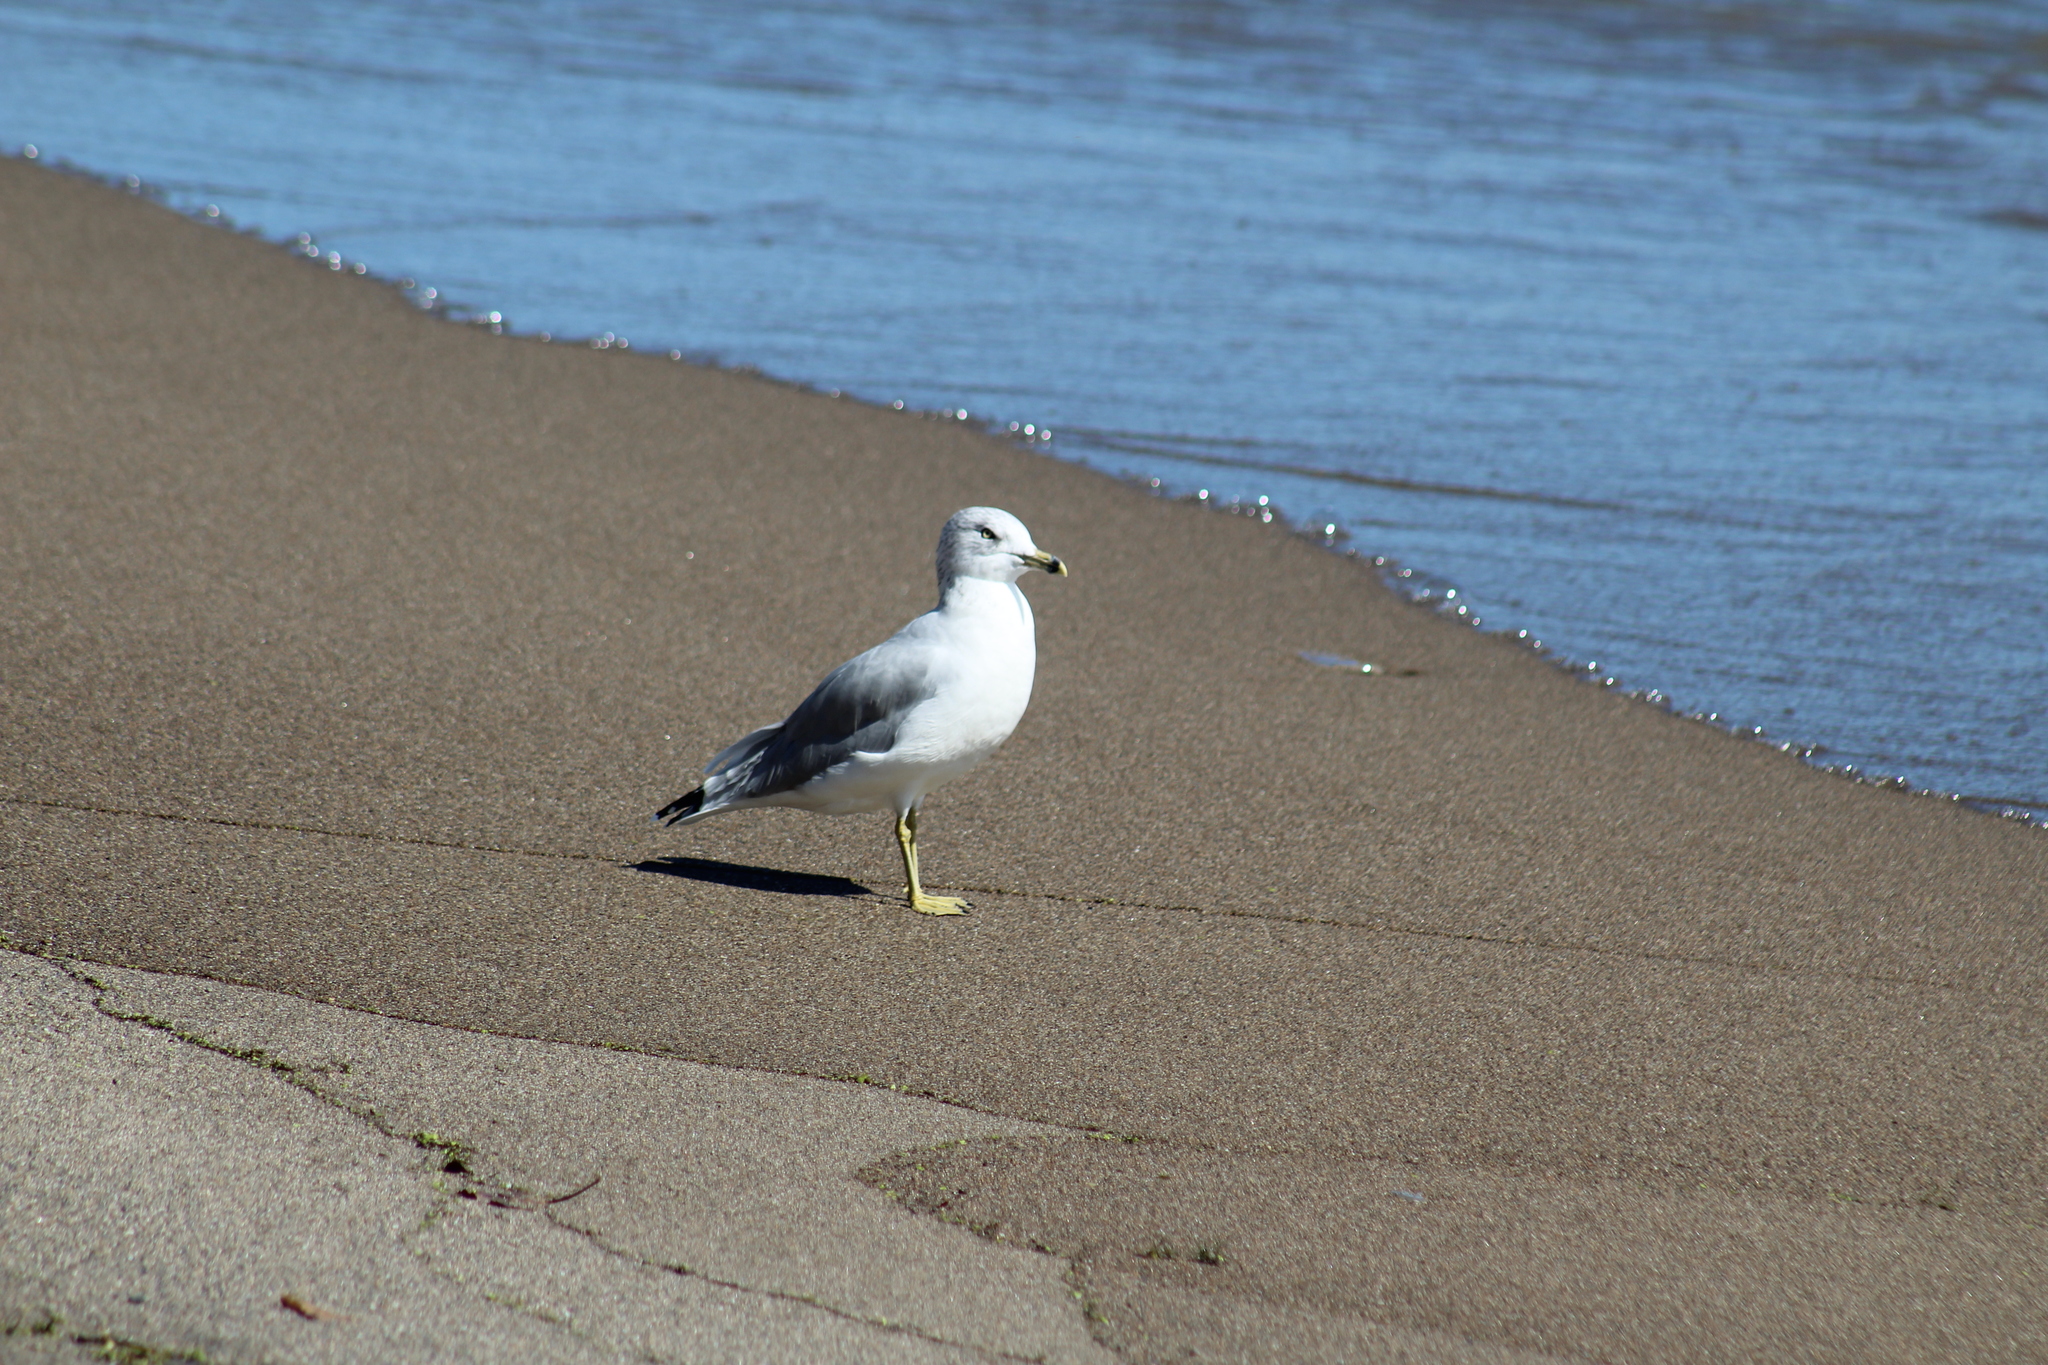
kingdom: Animalia
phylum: Chordata
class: Aves
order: Charadriiformes
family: Laridae
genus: Larus
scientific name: Larus delawarensis
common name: Ring-billed gull
